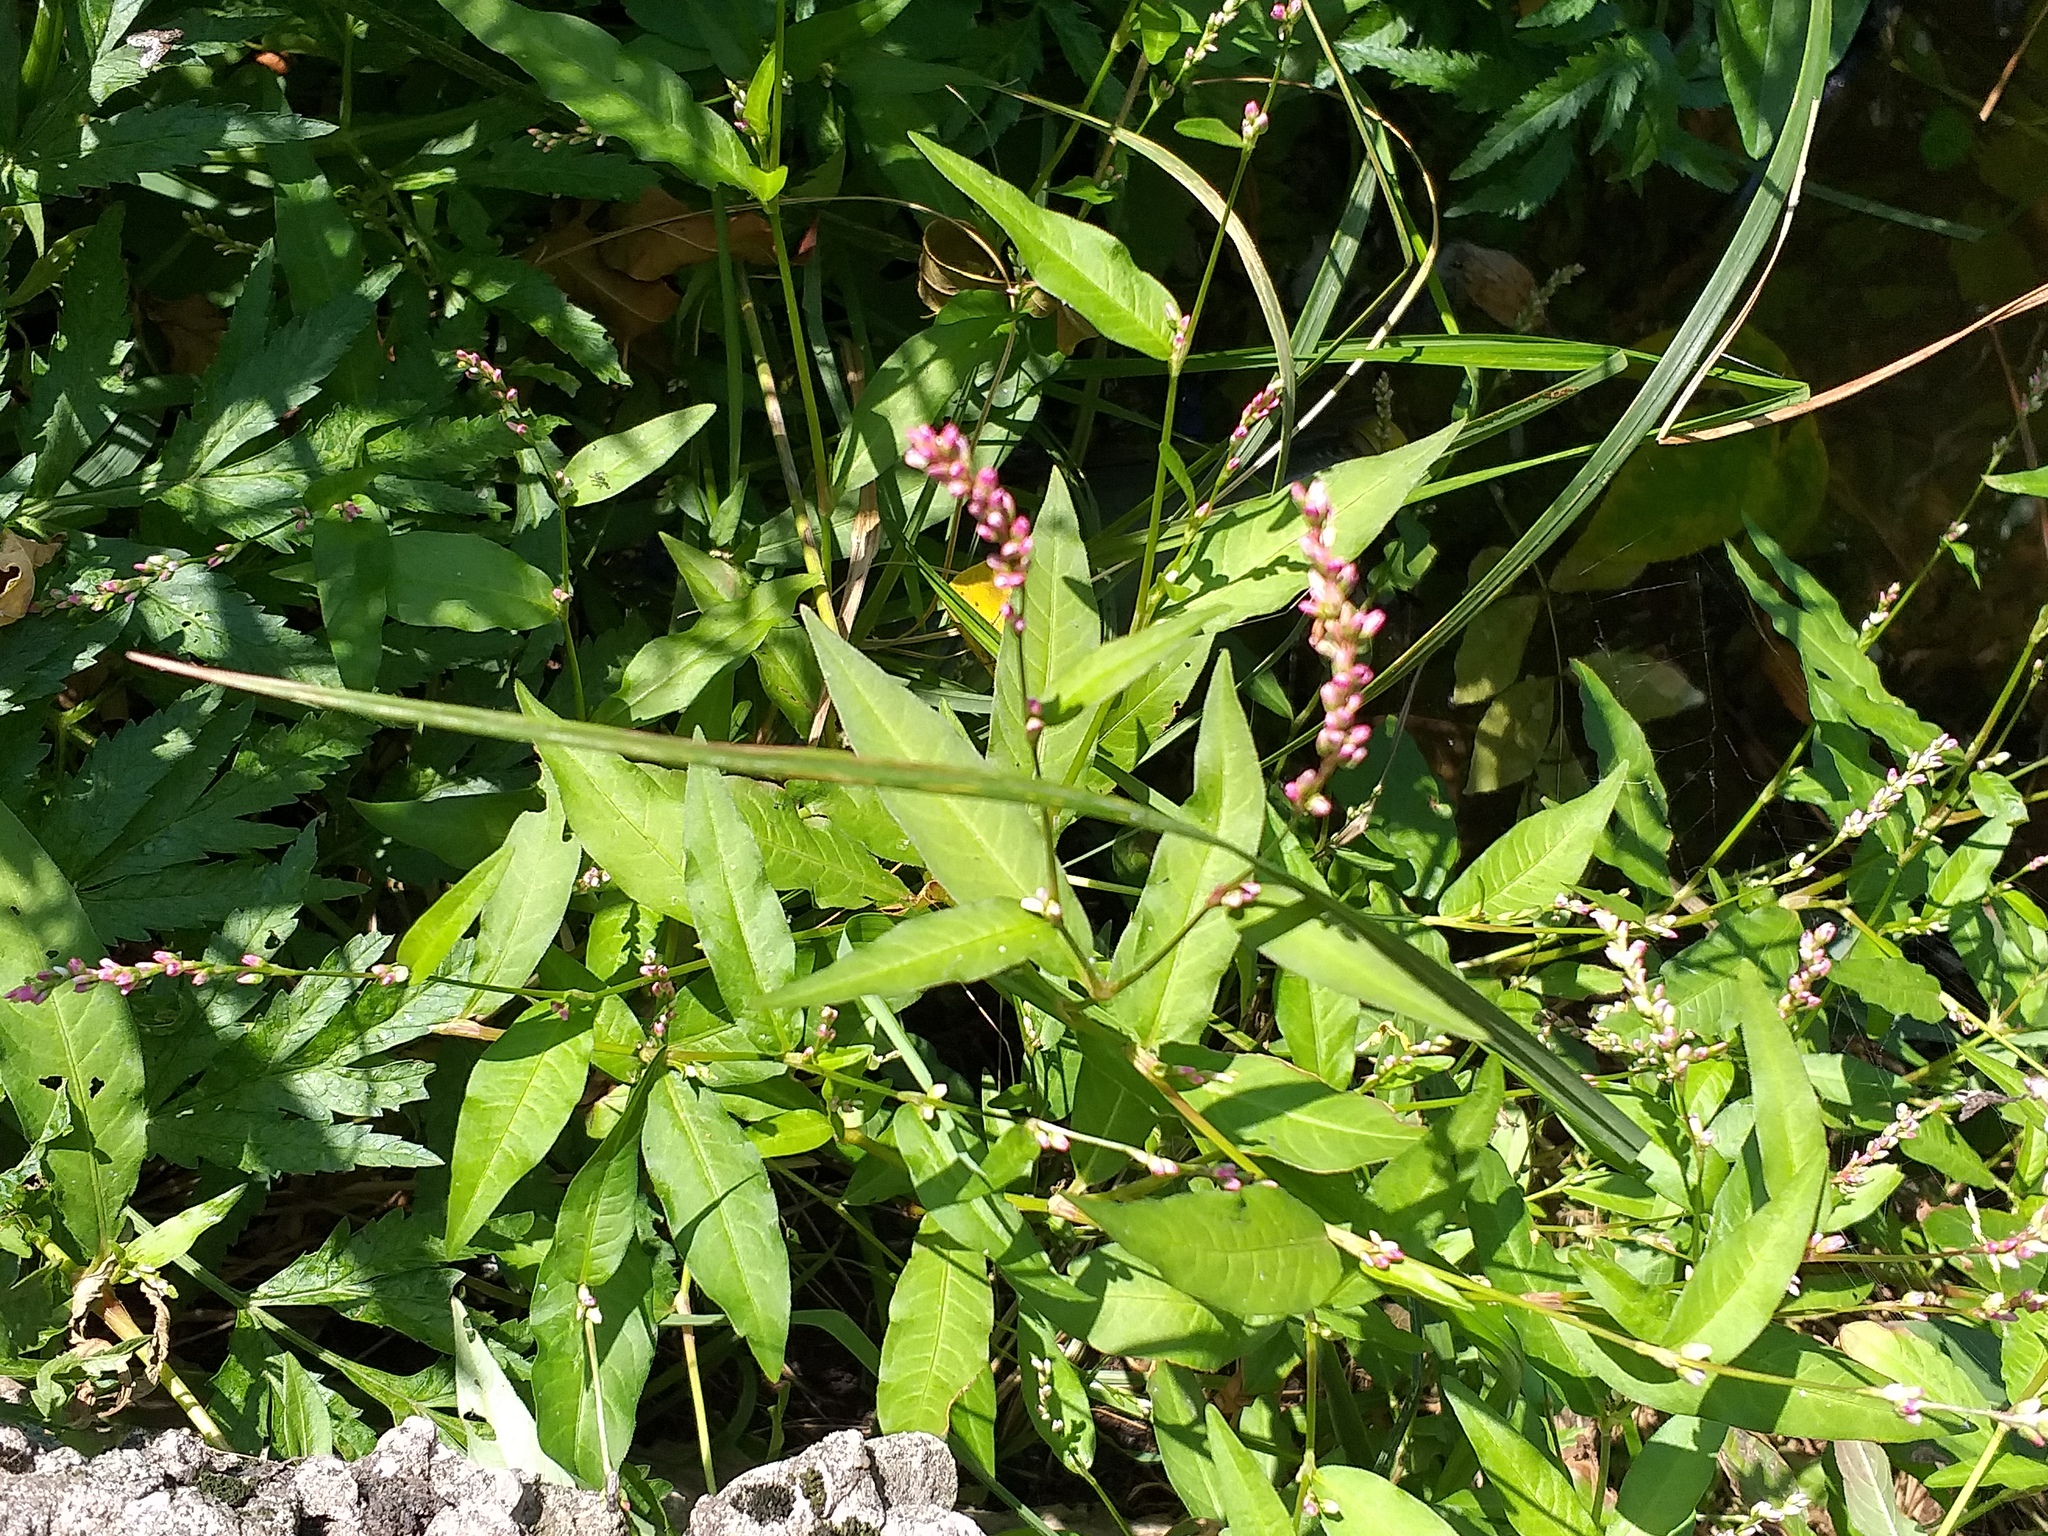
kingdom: Plantae
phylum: Tracheophyta
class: Magnoliopsida
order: Caryophyllales
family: Polygonaceae
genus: Persicaria
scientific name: Persicaria maculosa
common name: Redshank
